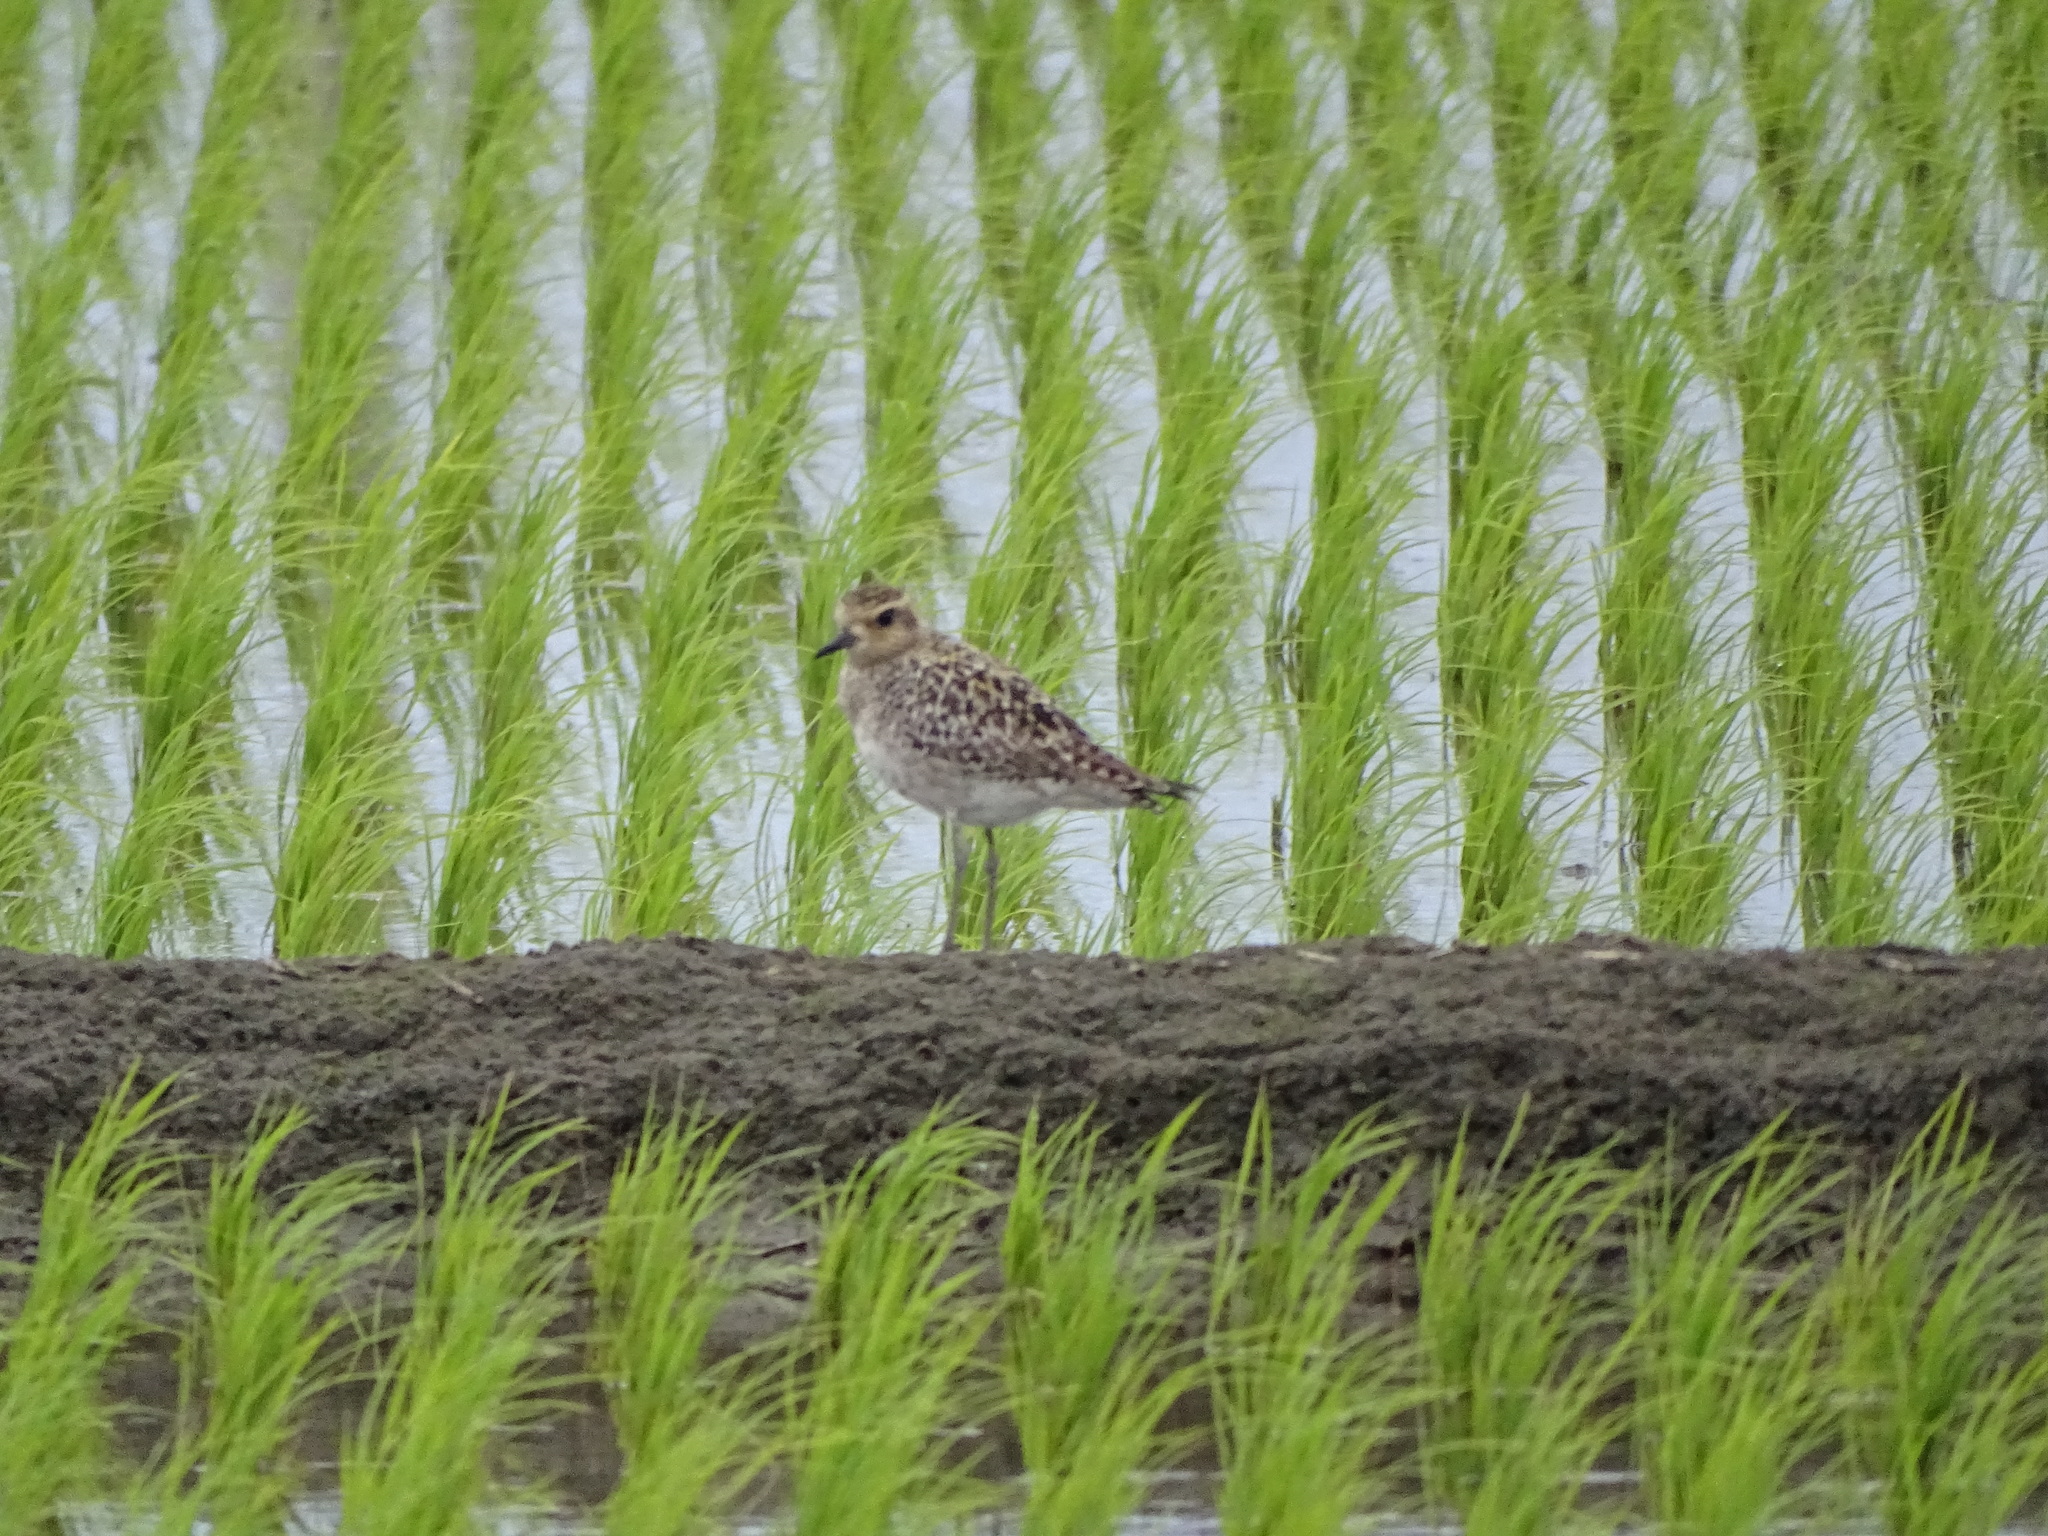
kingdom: Animalia
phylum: Chordata
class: Aves
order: Charadriiformes
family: Charadriidae
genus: Pluvialis
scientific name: Pluvialis fulva
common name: Pacific golden plover
